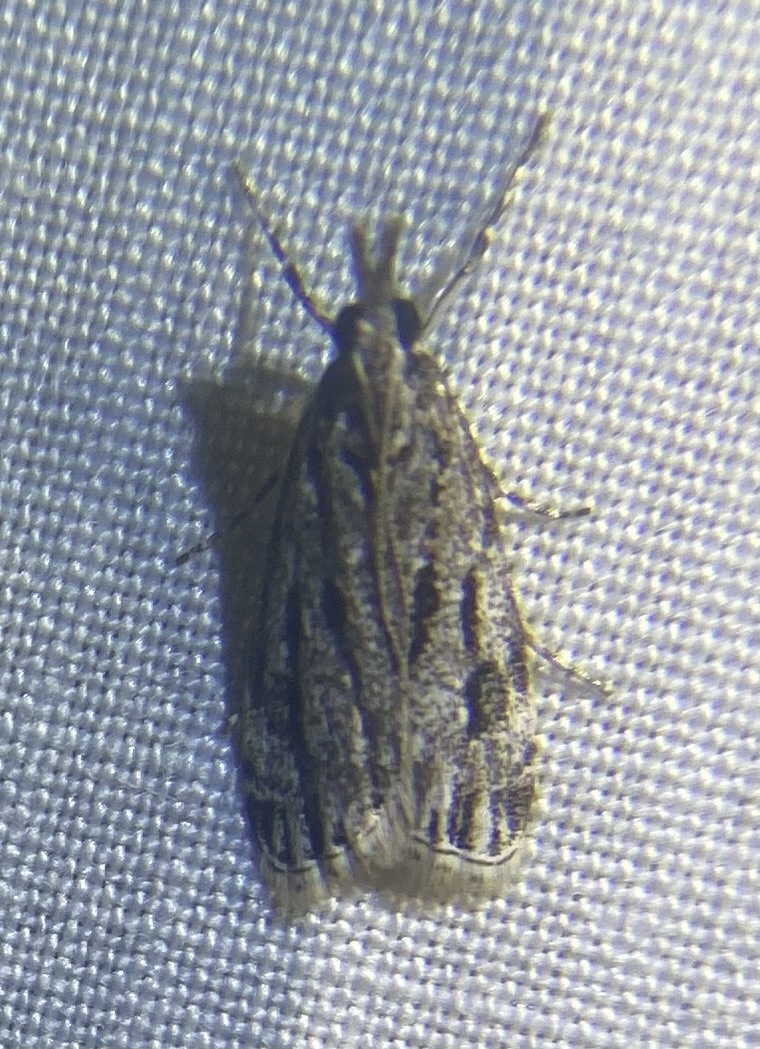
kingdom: Animalia
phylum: Arthropoda
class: Insecta
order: Lepidoptera
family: Crambidae
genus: Eudonia
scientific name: Eudonia strigalis
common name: Striped eudonia moth
